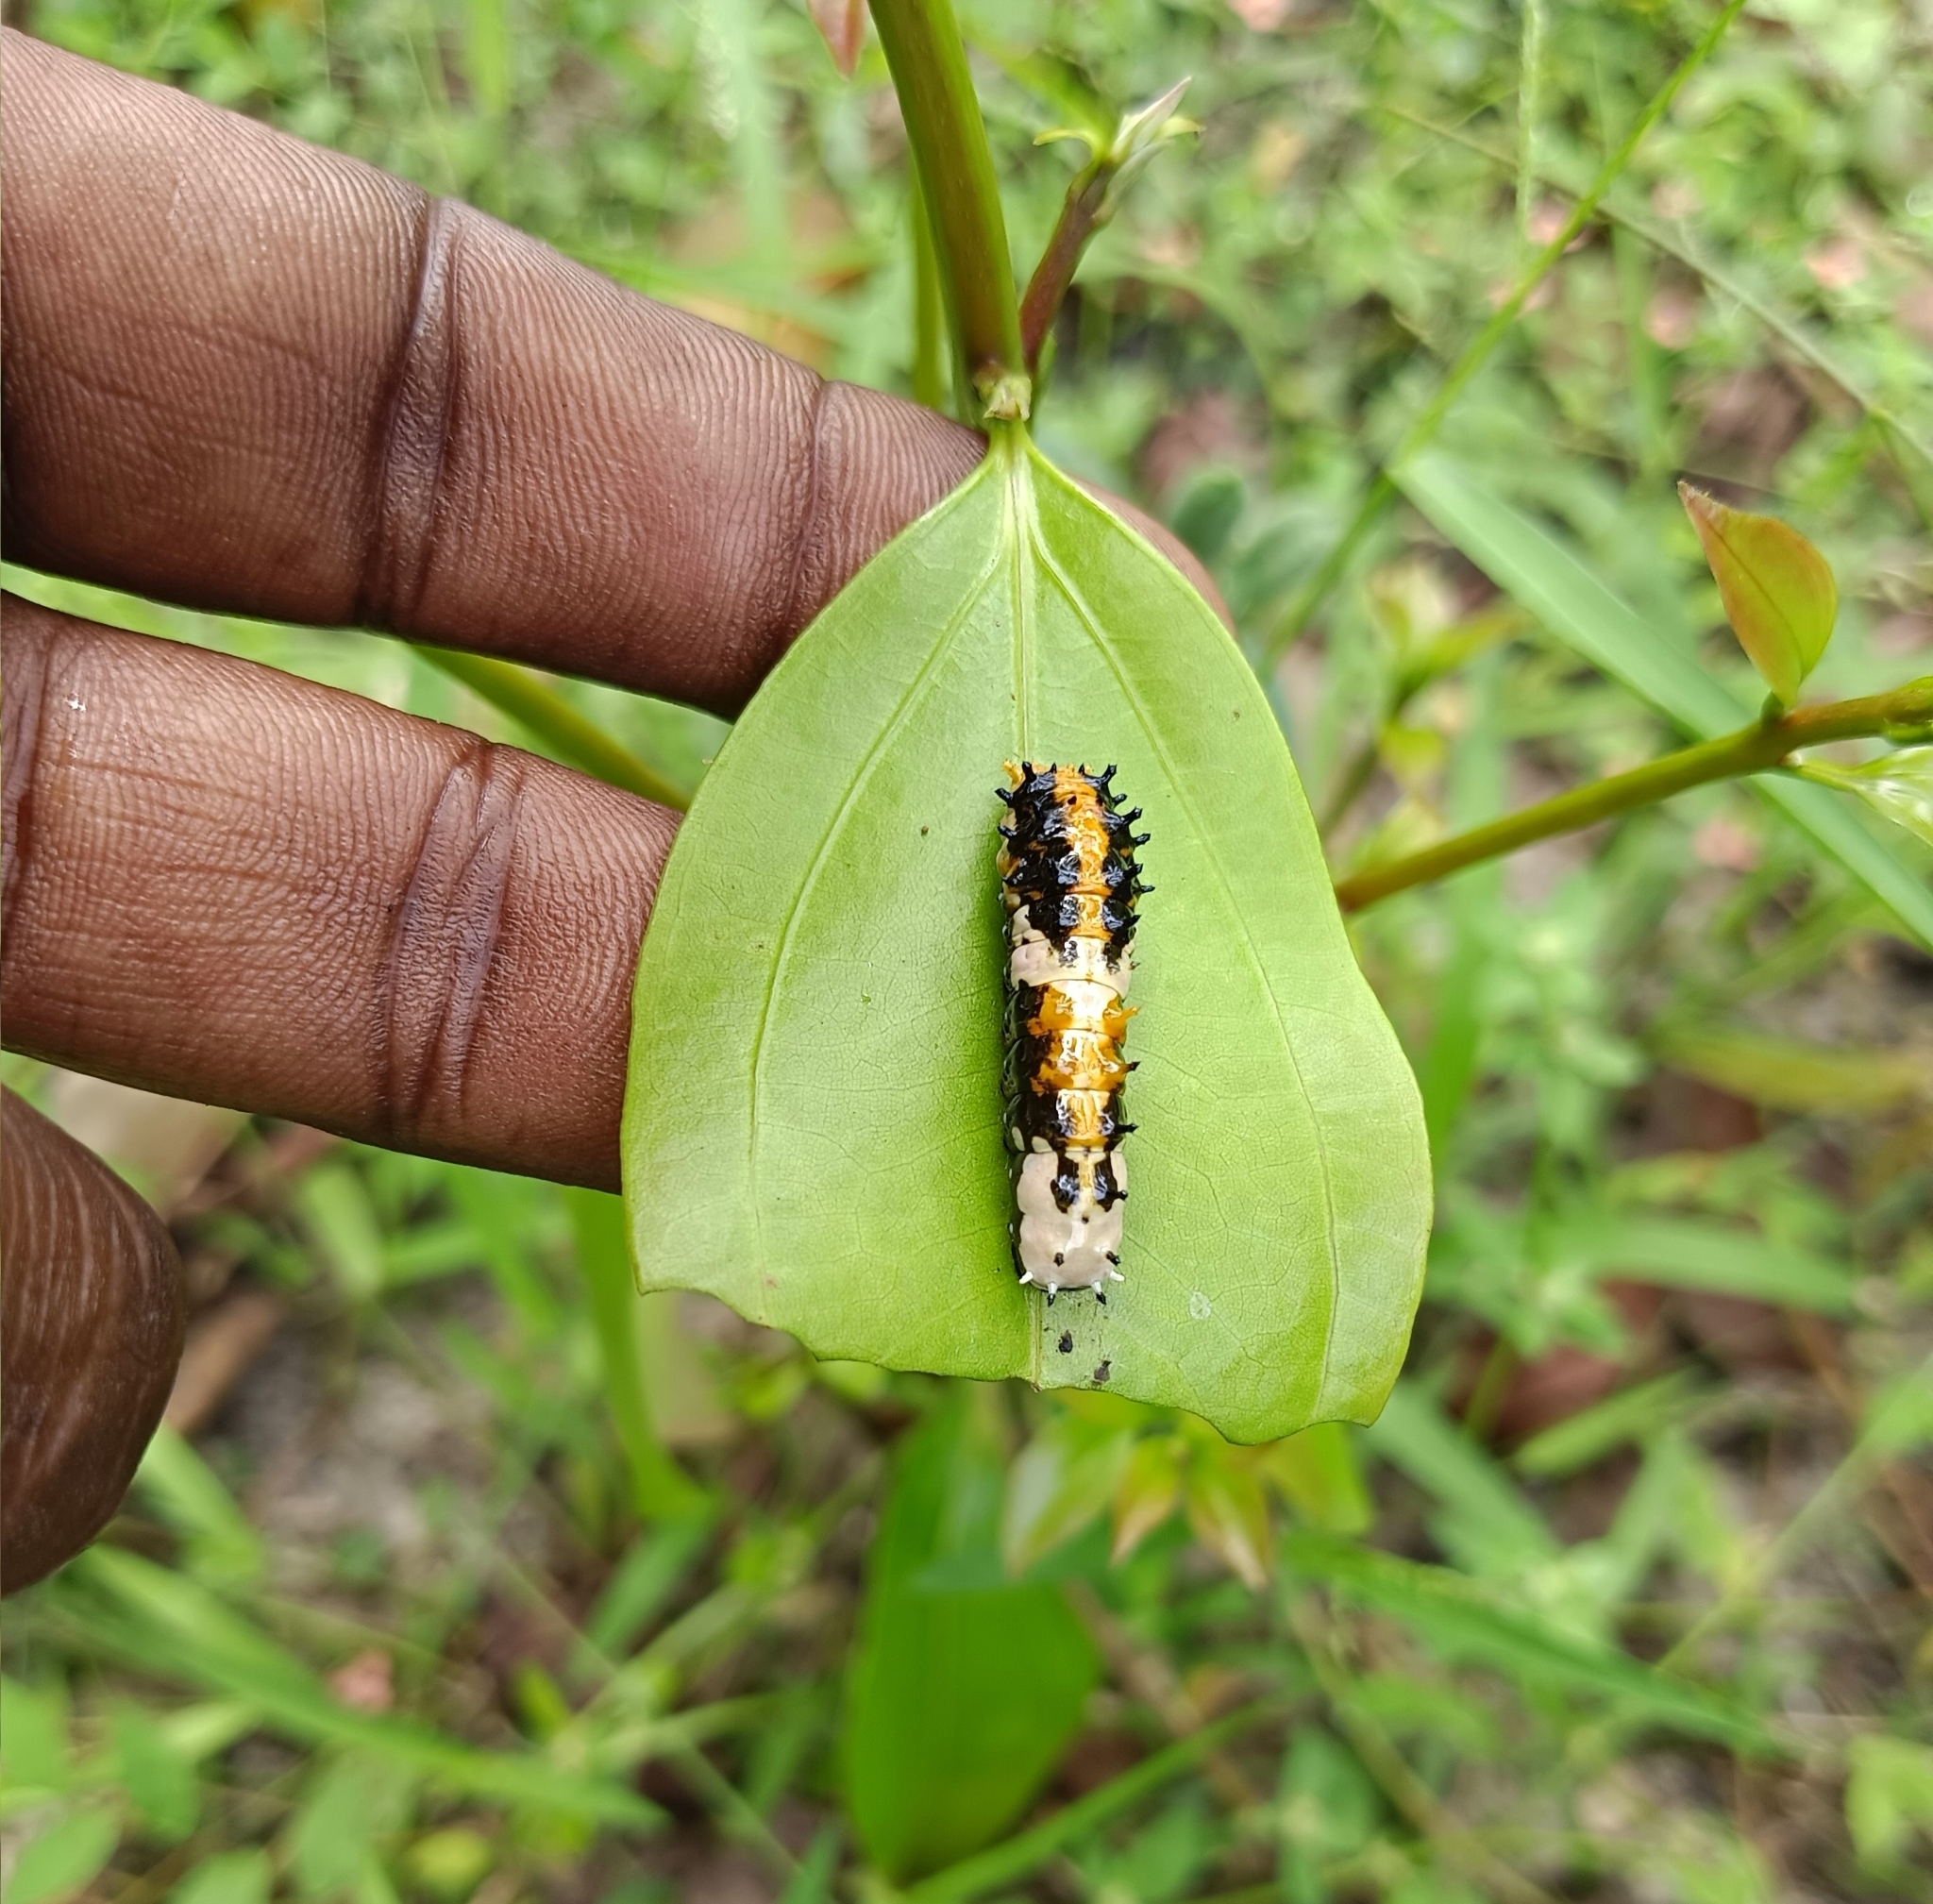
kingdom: Animalia
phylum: Arthropoda
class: Insecta
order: Lepidoptera
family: Papilionidae
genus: Chilasa
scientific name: Chilasa clytia
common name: Common mime
